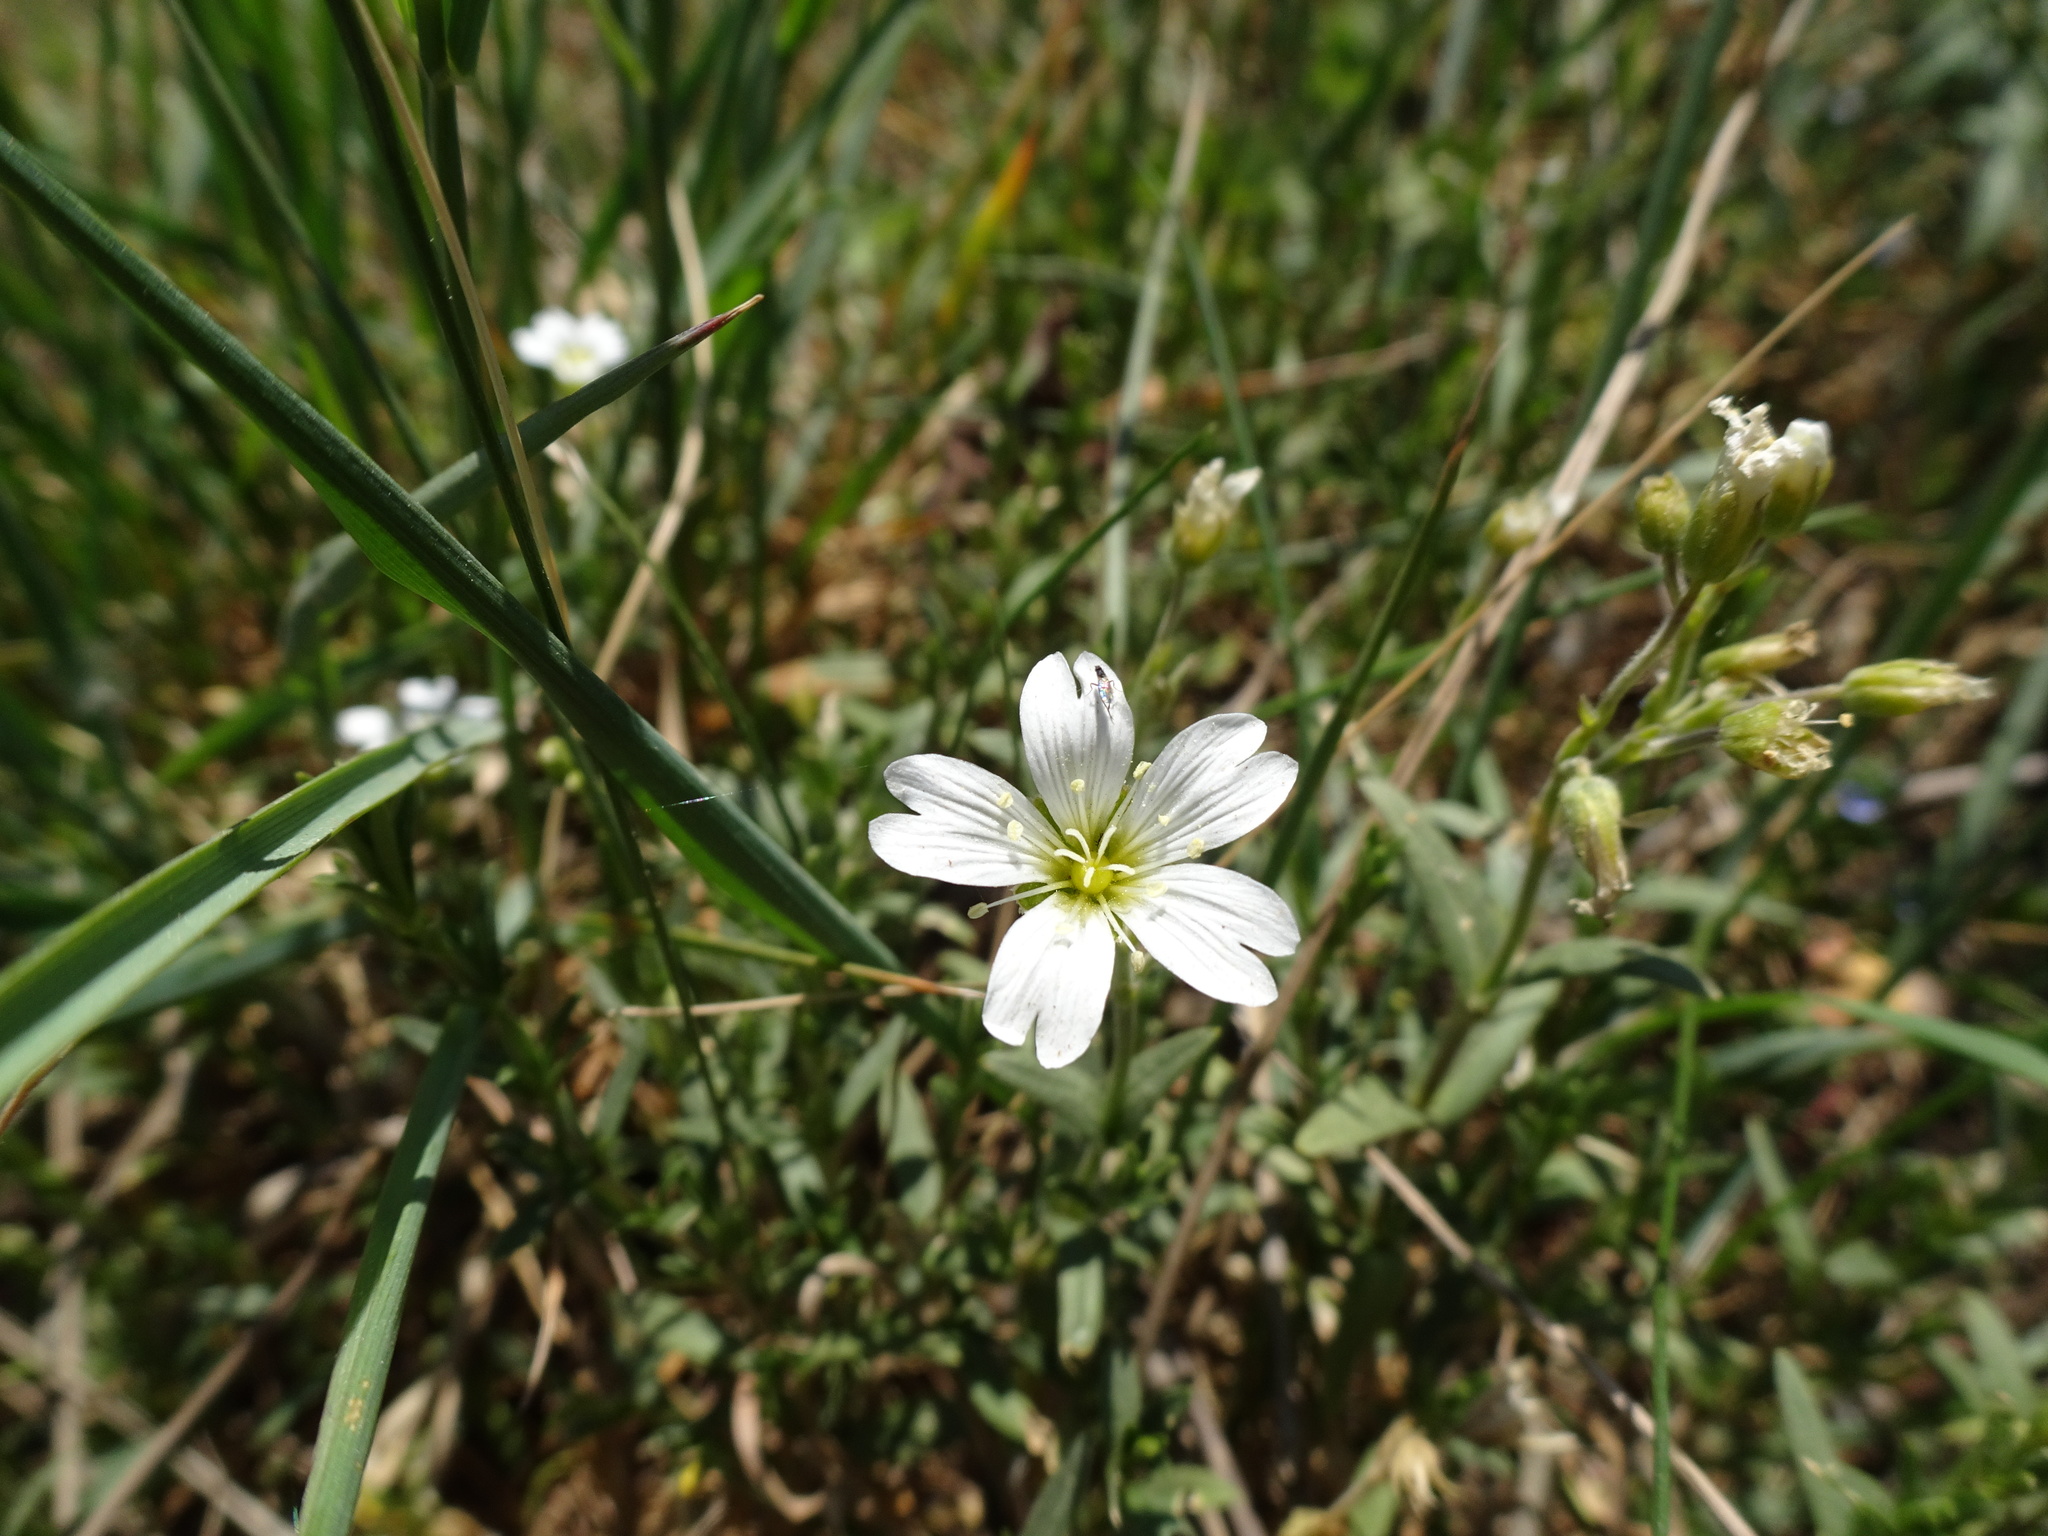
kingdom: Plantae
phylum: Tracheophyta
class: Magnoliopsida
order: Caryophyllales
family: Caryophyllaceae
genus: Cerastium
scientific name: Cerastium arvense
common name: Field mouse-ear
